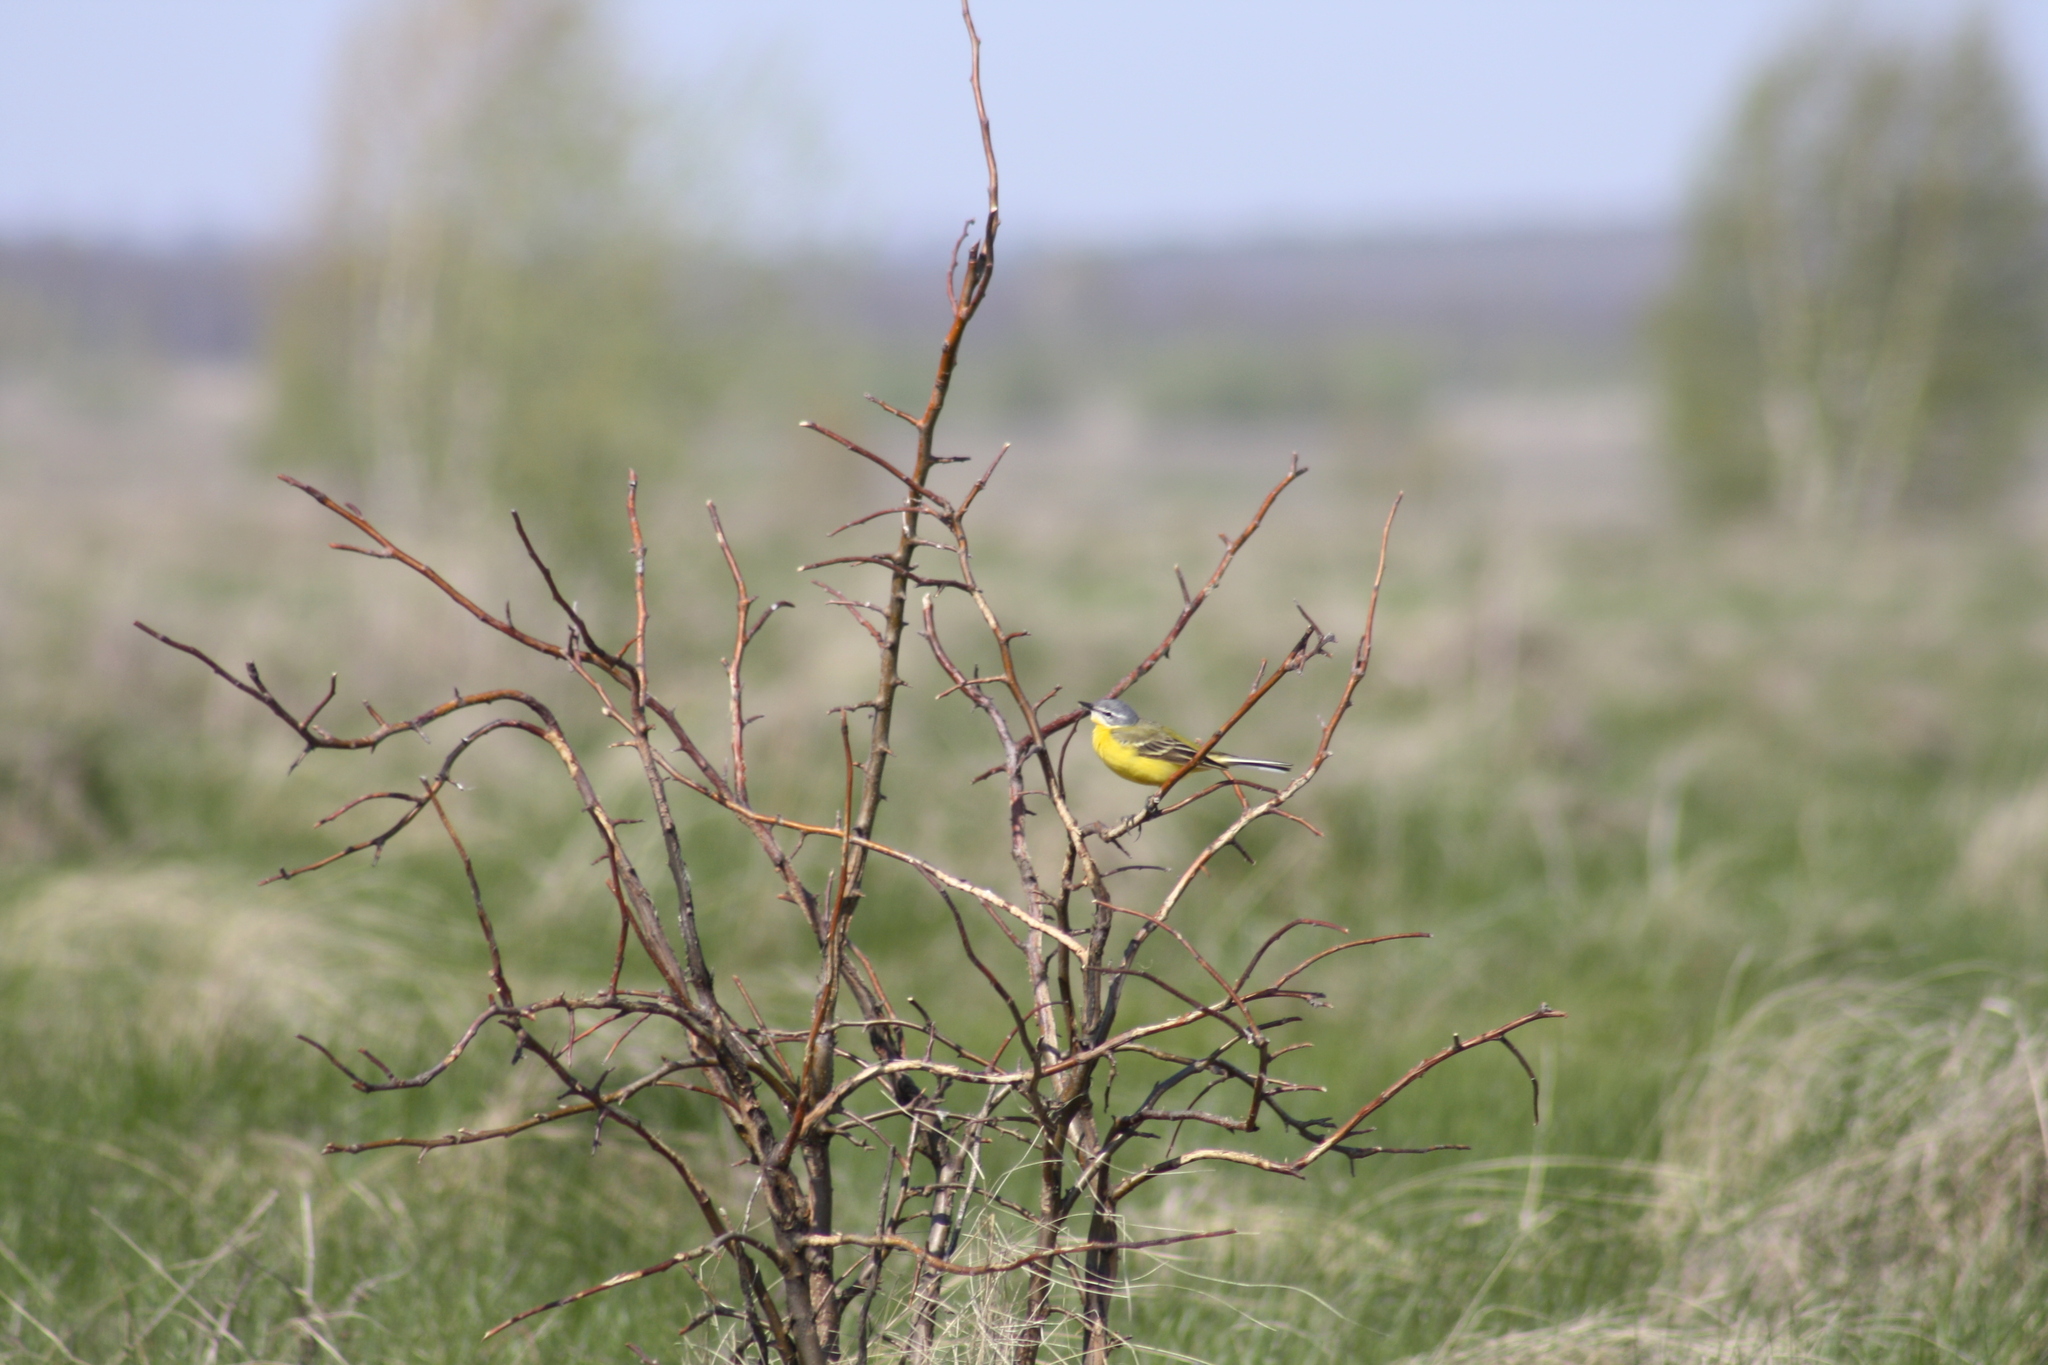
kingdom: Animalia
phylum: Chordata
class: Aves
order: Passeriformes
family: Motacillidae
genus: Motacilla
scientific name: Motacilla flava
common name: Western yellow wagtail
